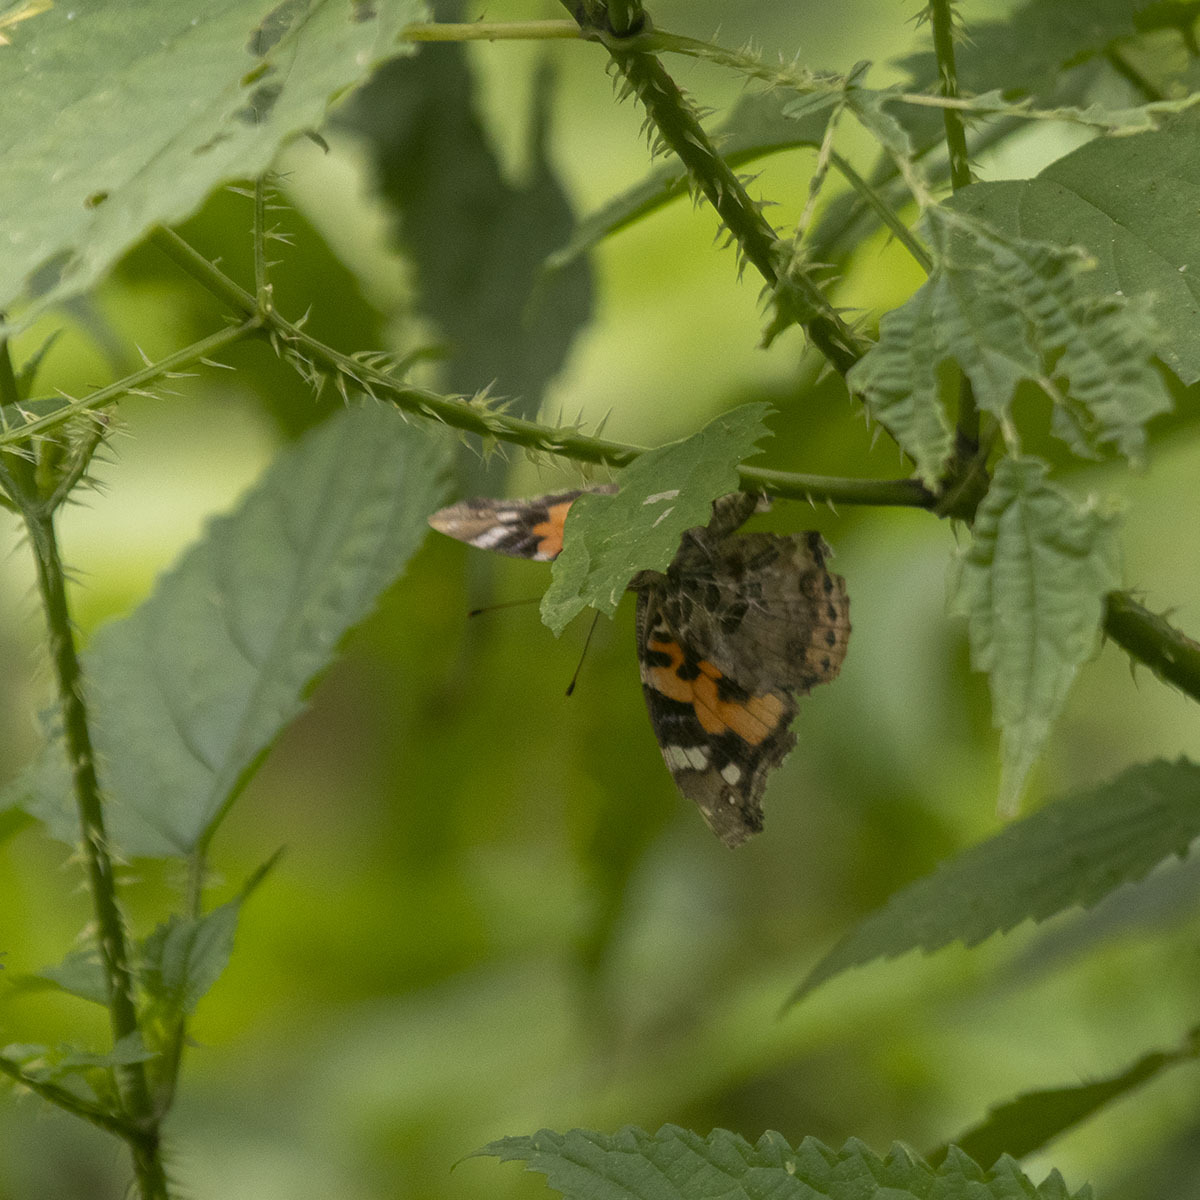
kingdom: Animalia
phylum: Arthropoda
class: Insecta
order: Lepidoptera
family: Nymphalidae
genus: Vanessa
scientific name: Vanessa indica
